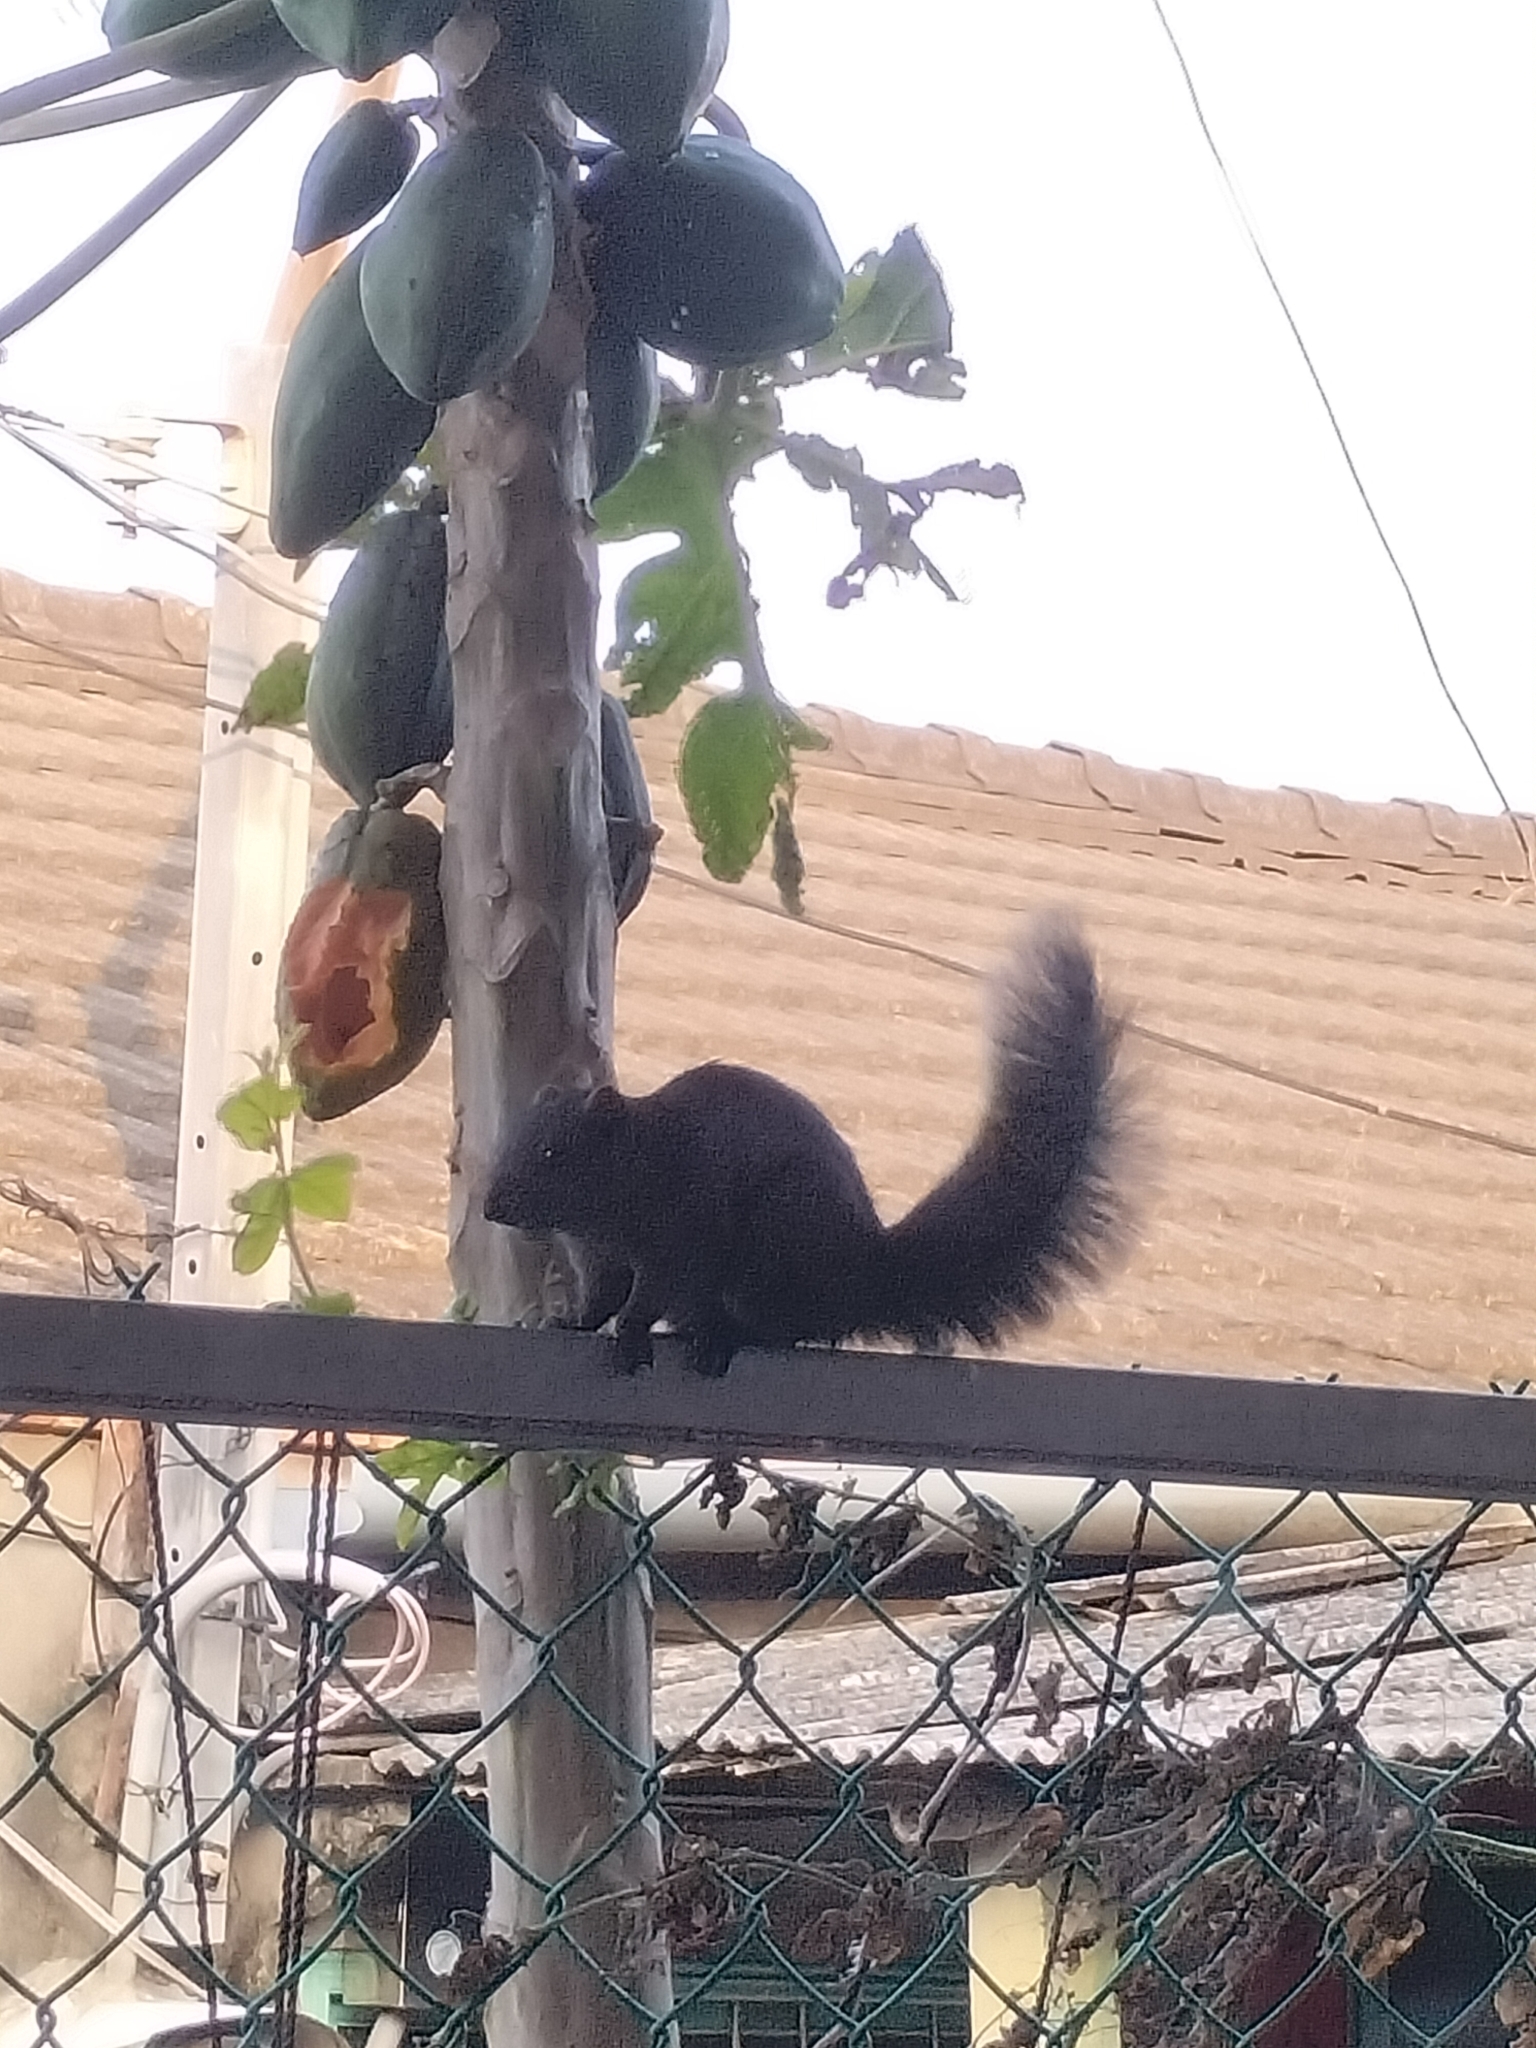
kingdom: Animalia
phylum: Chordata
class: Mammalia
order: Rodentia
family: Sciuridae
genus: Callosciurus
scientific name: Callosciurus erythraeus
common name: Pallas's squirrel
